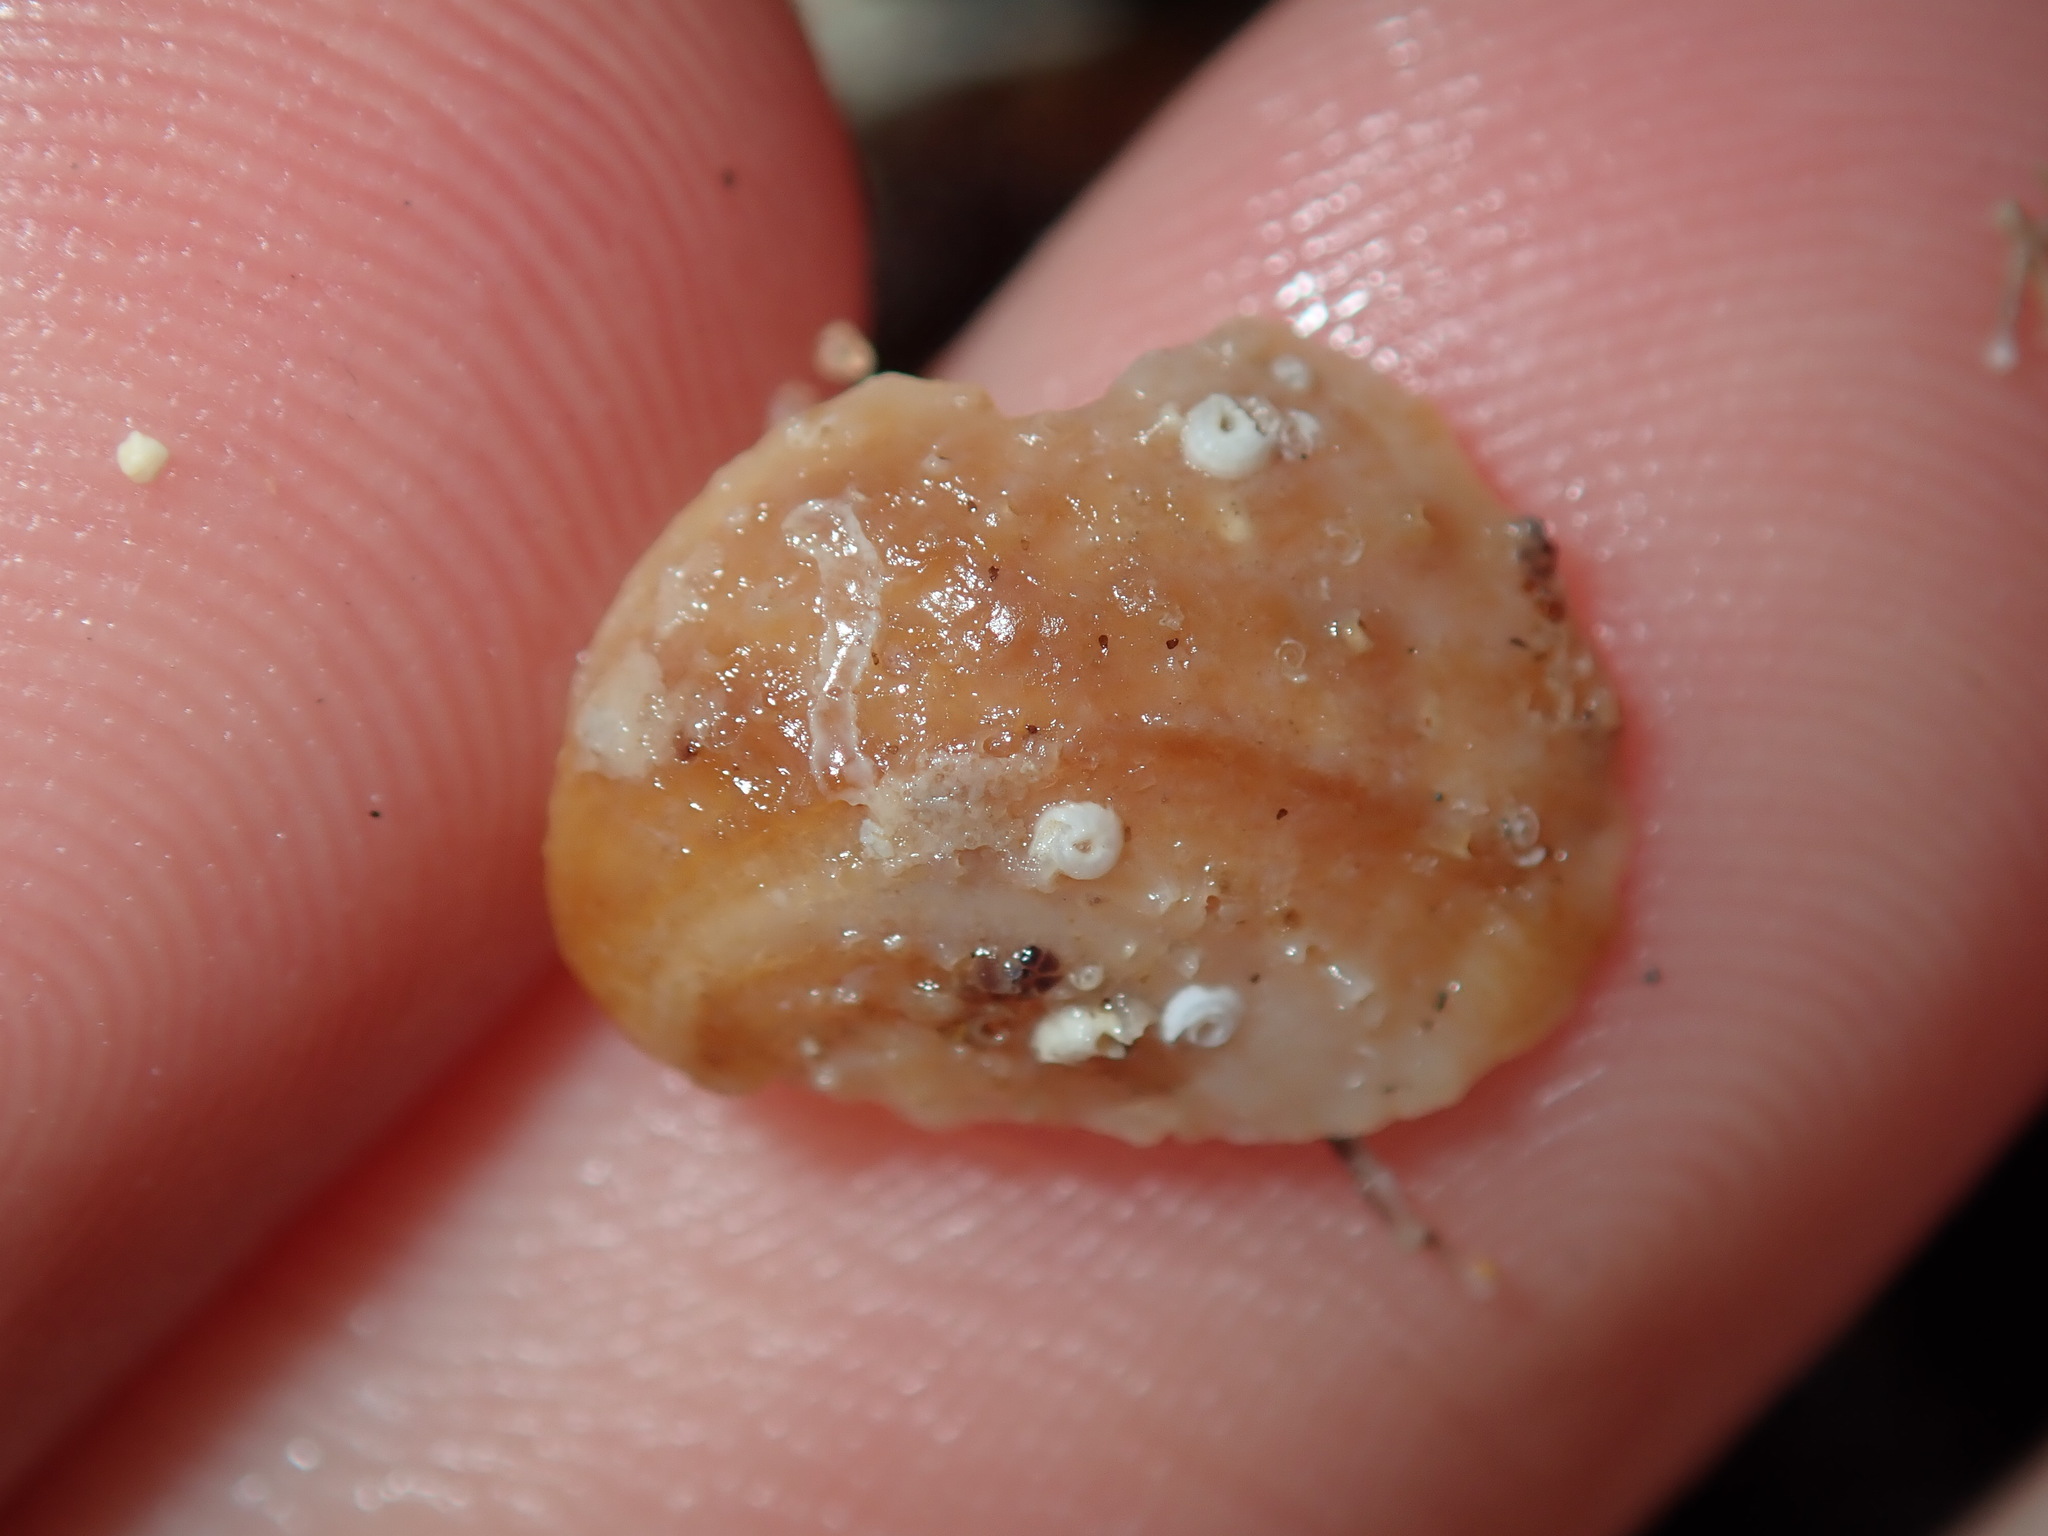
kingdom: Animalia
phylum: Mollusca
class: Gastropoda
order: Littorinimorpha
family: Calyptraeidae
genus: Bostrycapulus
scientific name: Bostrycapulus pritzkeri
